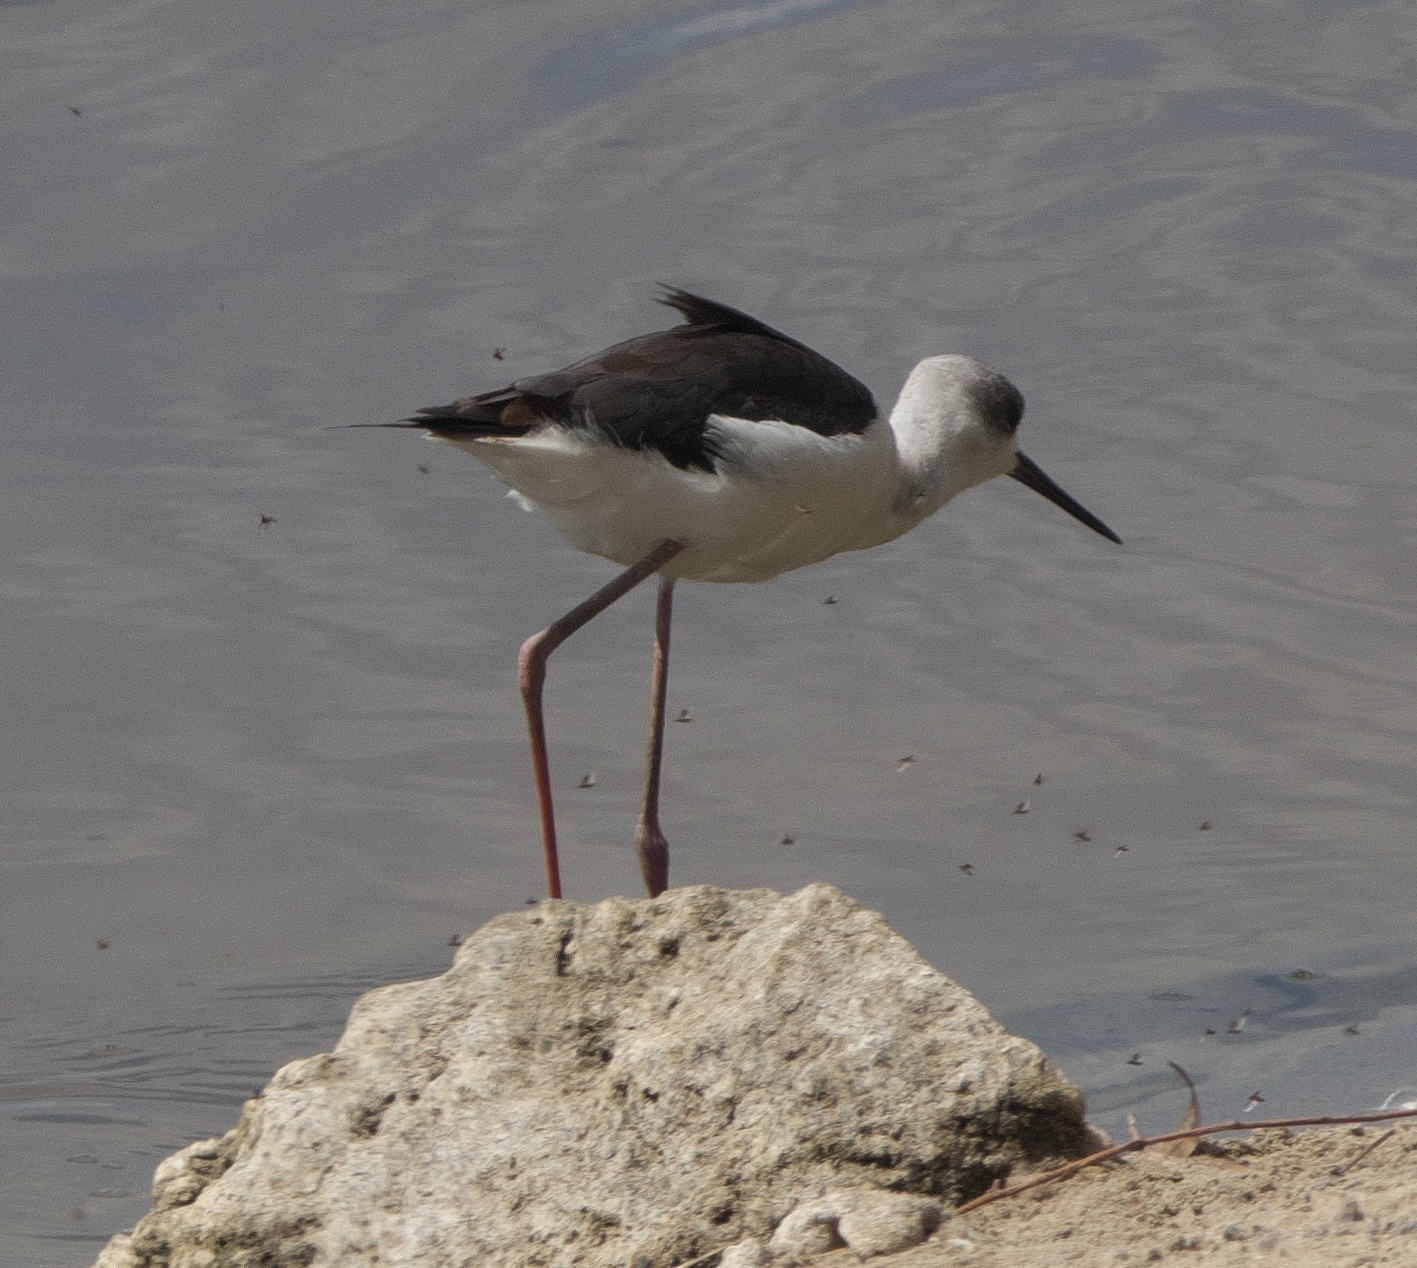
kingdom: Animalia
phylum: Chordata
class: Aves
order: Charadriiformes
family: Recurvirostridae
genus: Himantopus
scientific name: Himantopus leucocephalus
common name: White-headed stilt
